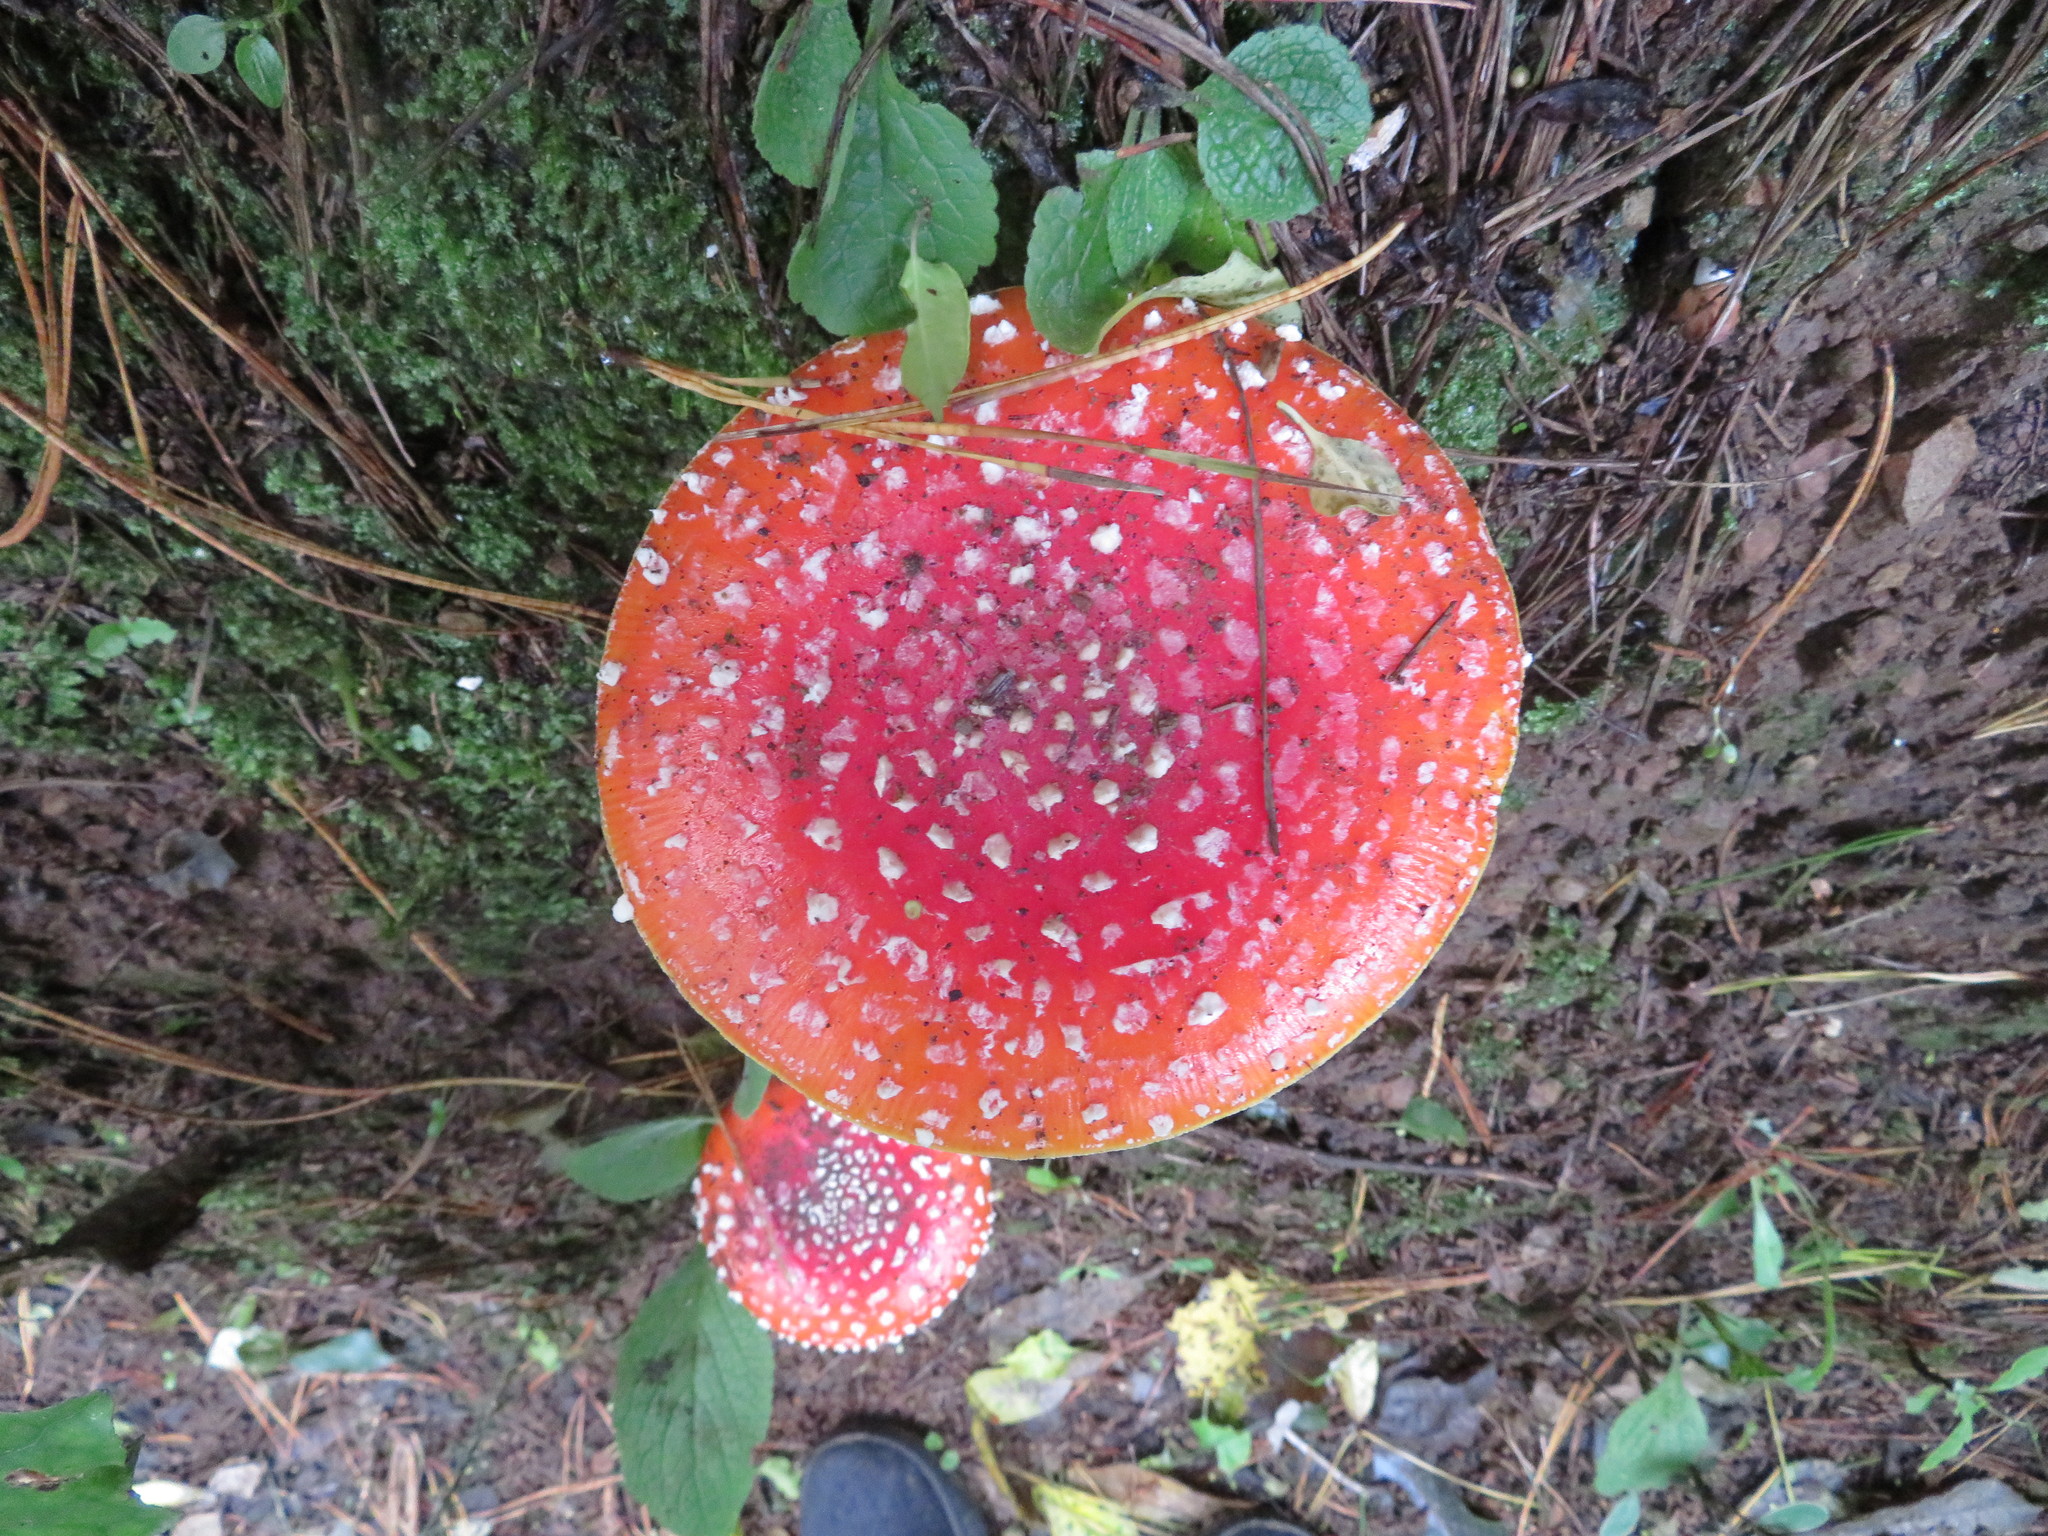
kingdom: Fungi
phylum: Basidiomycota
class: Agaricomycetes
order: Agaricales
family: Amanitaceae
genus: Amanita
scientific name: Amanita muscaria
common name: Fly agaric
